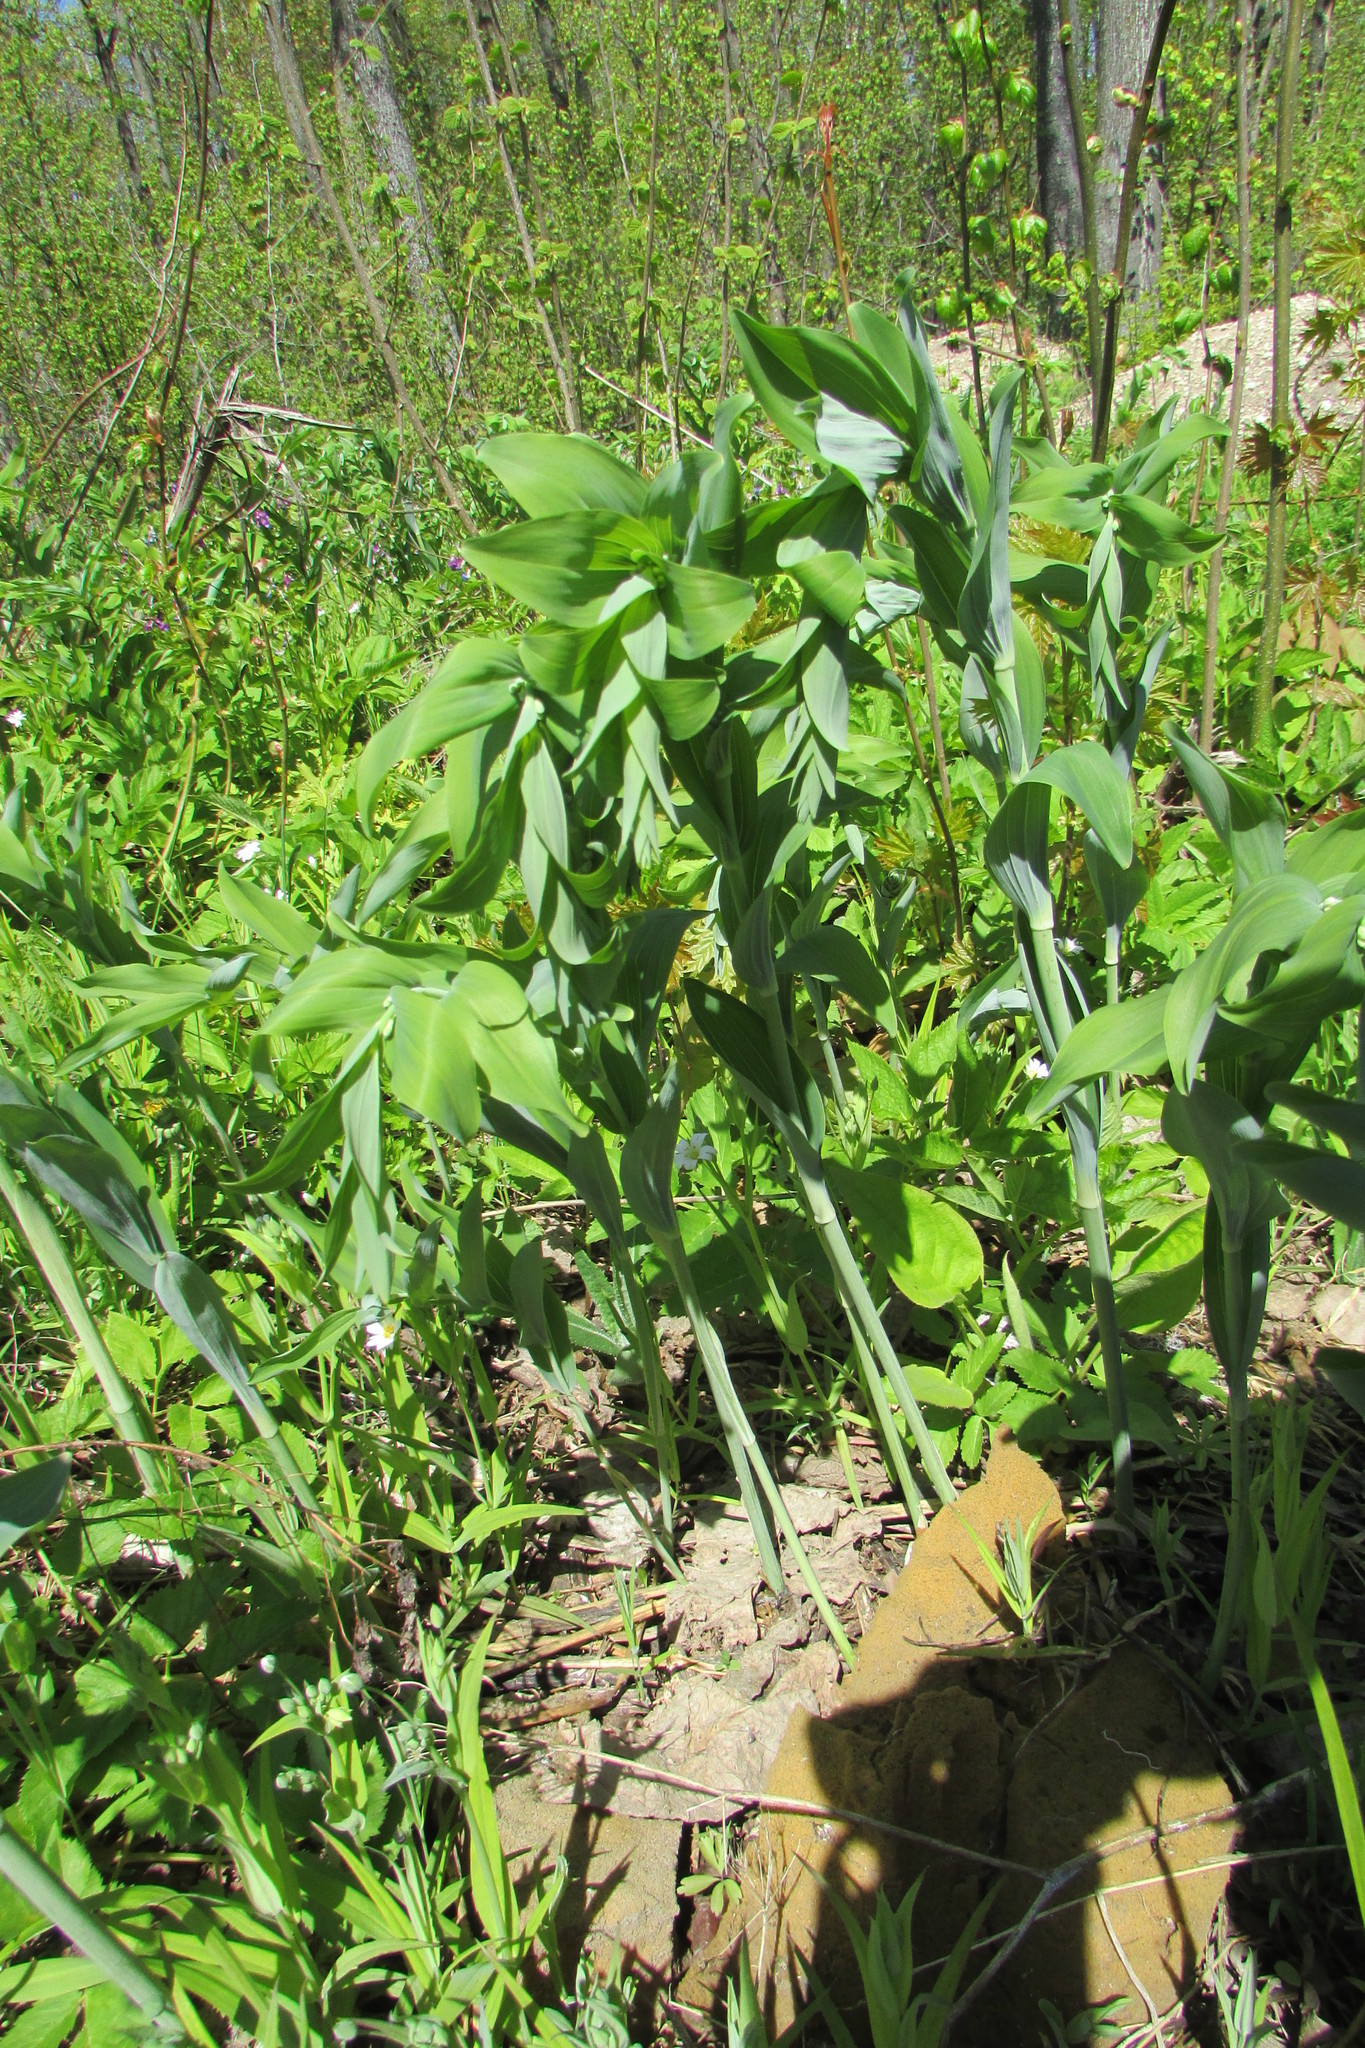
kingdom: Plantae
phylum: Tracheophyta
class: Liliopsida
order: Asparagales
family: Asparagaceae
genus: Polygonatum
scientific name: Polygonatum multiflorum
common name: Solomon's-seal
